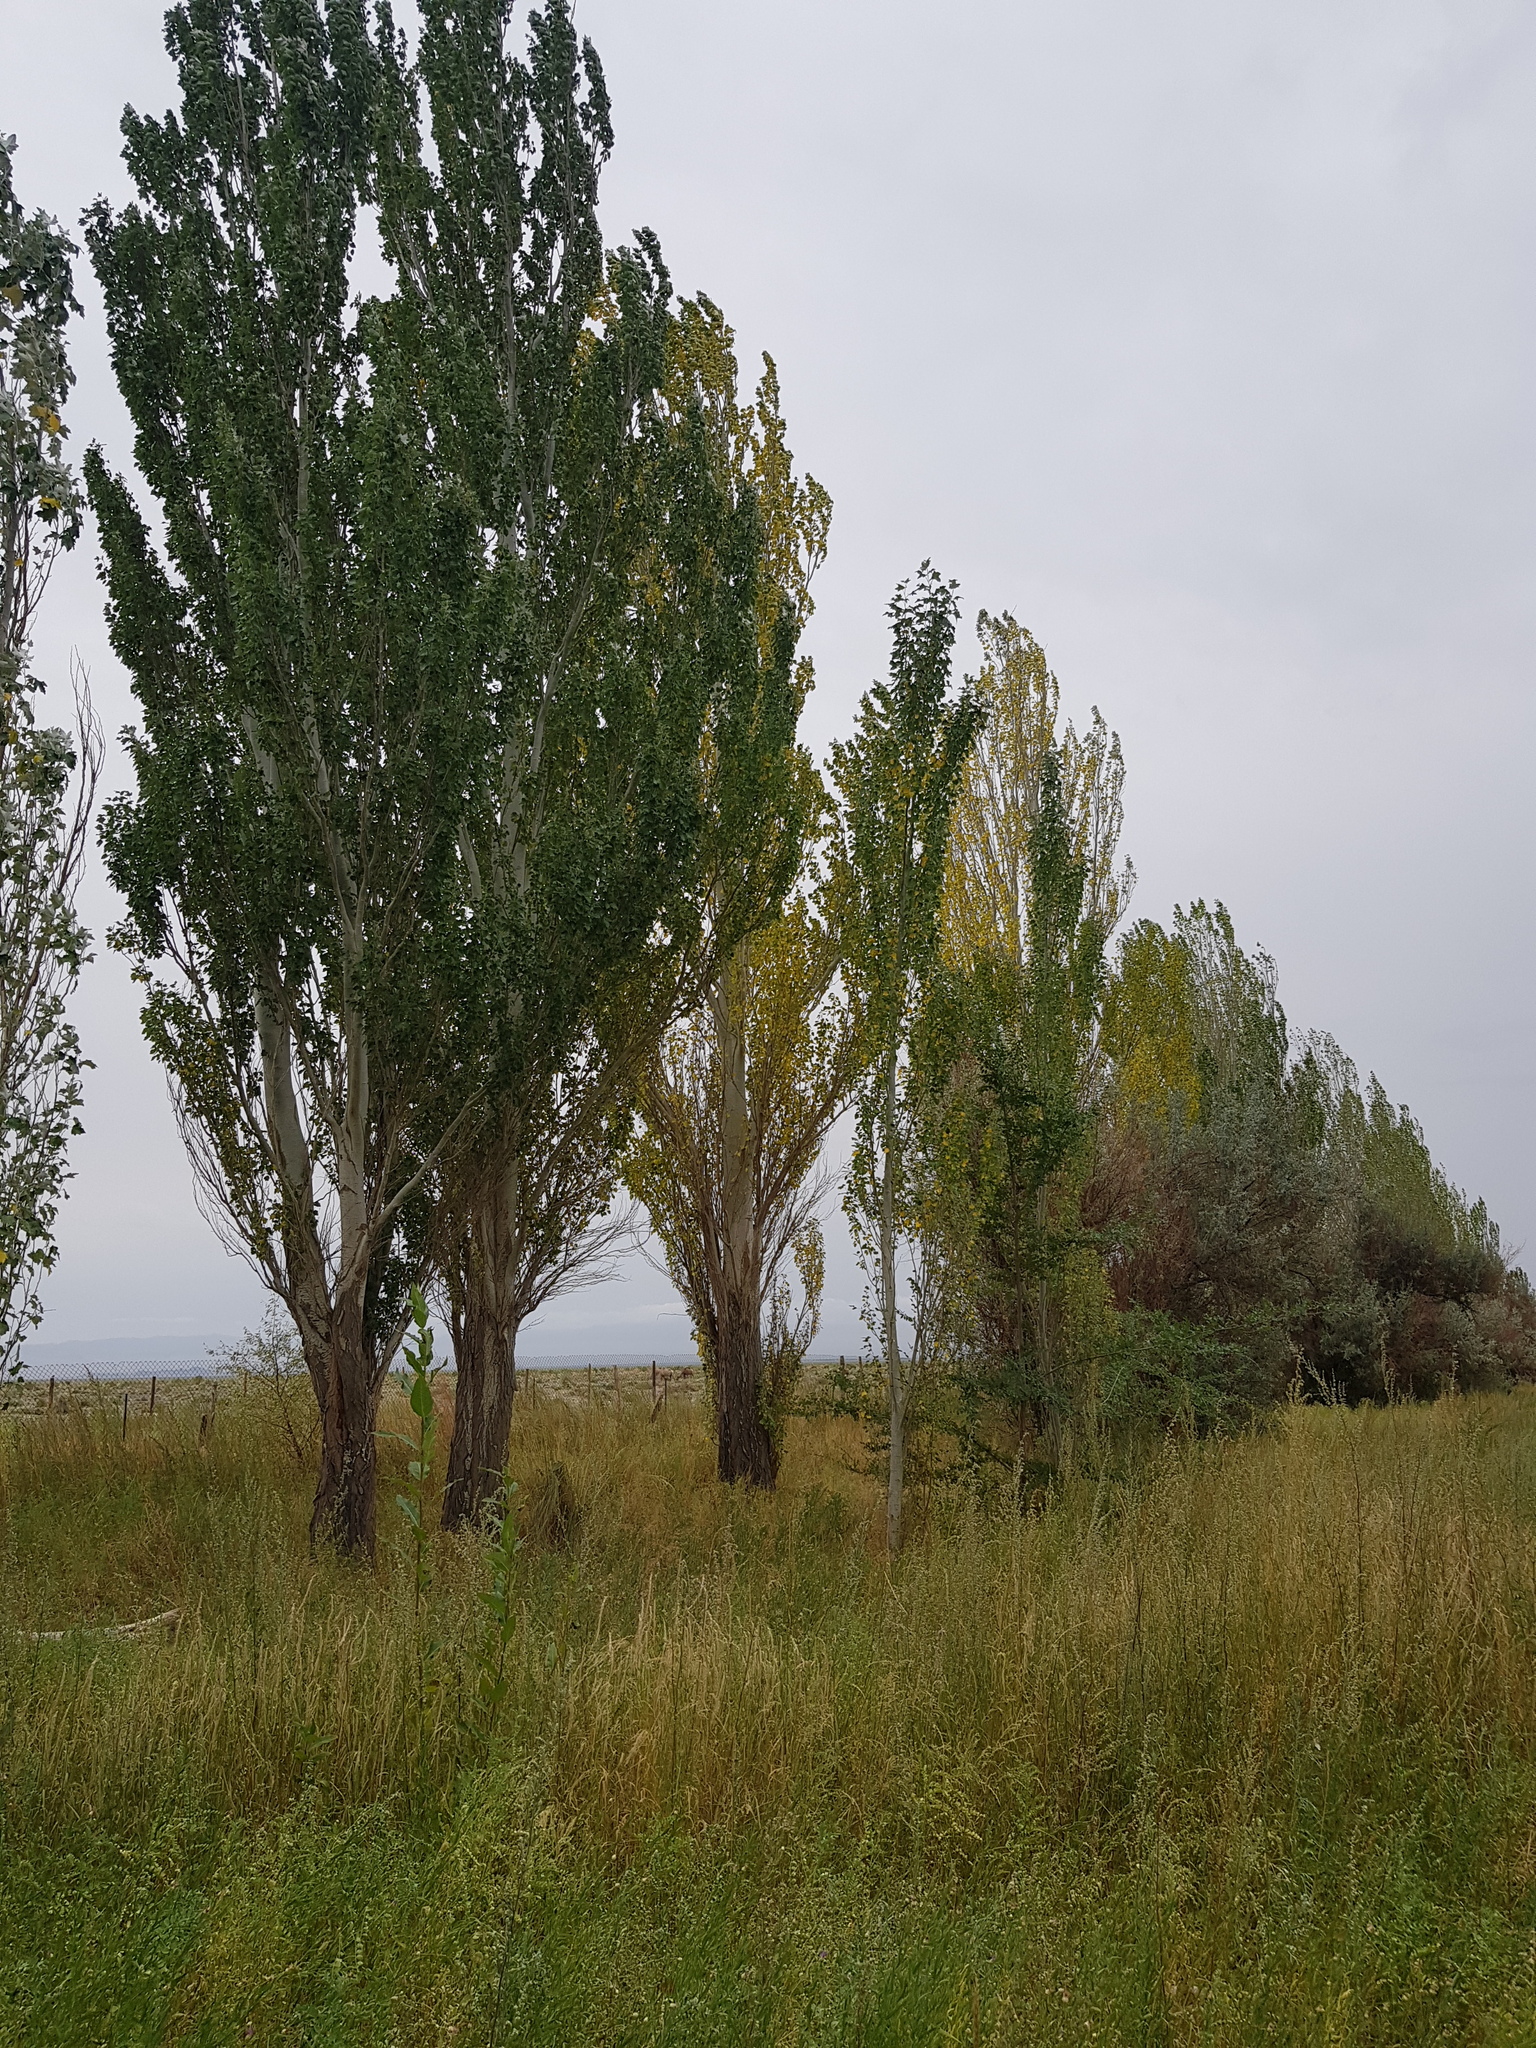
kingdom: Plantae
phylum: Tracheophyta
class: Magnoliopsida
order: Malpighiales
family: Salicaceae
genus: Populus
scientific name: Populus alba
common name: White poplar
